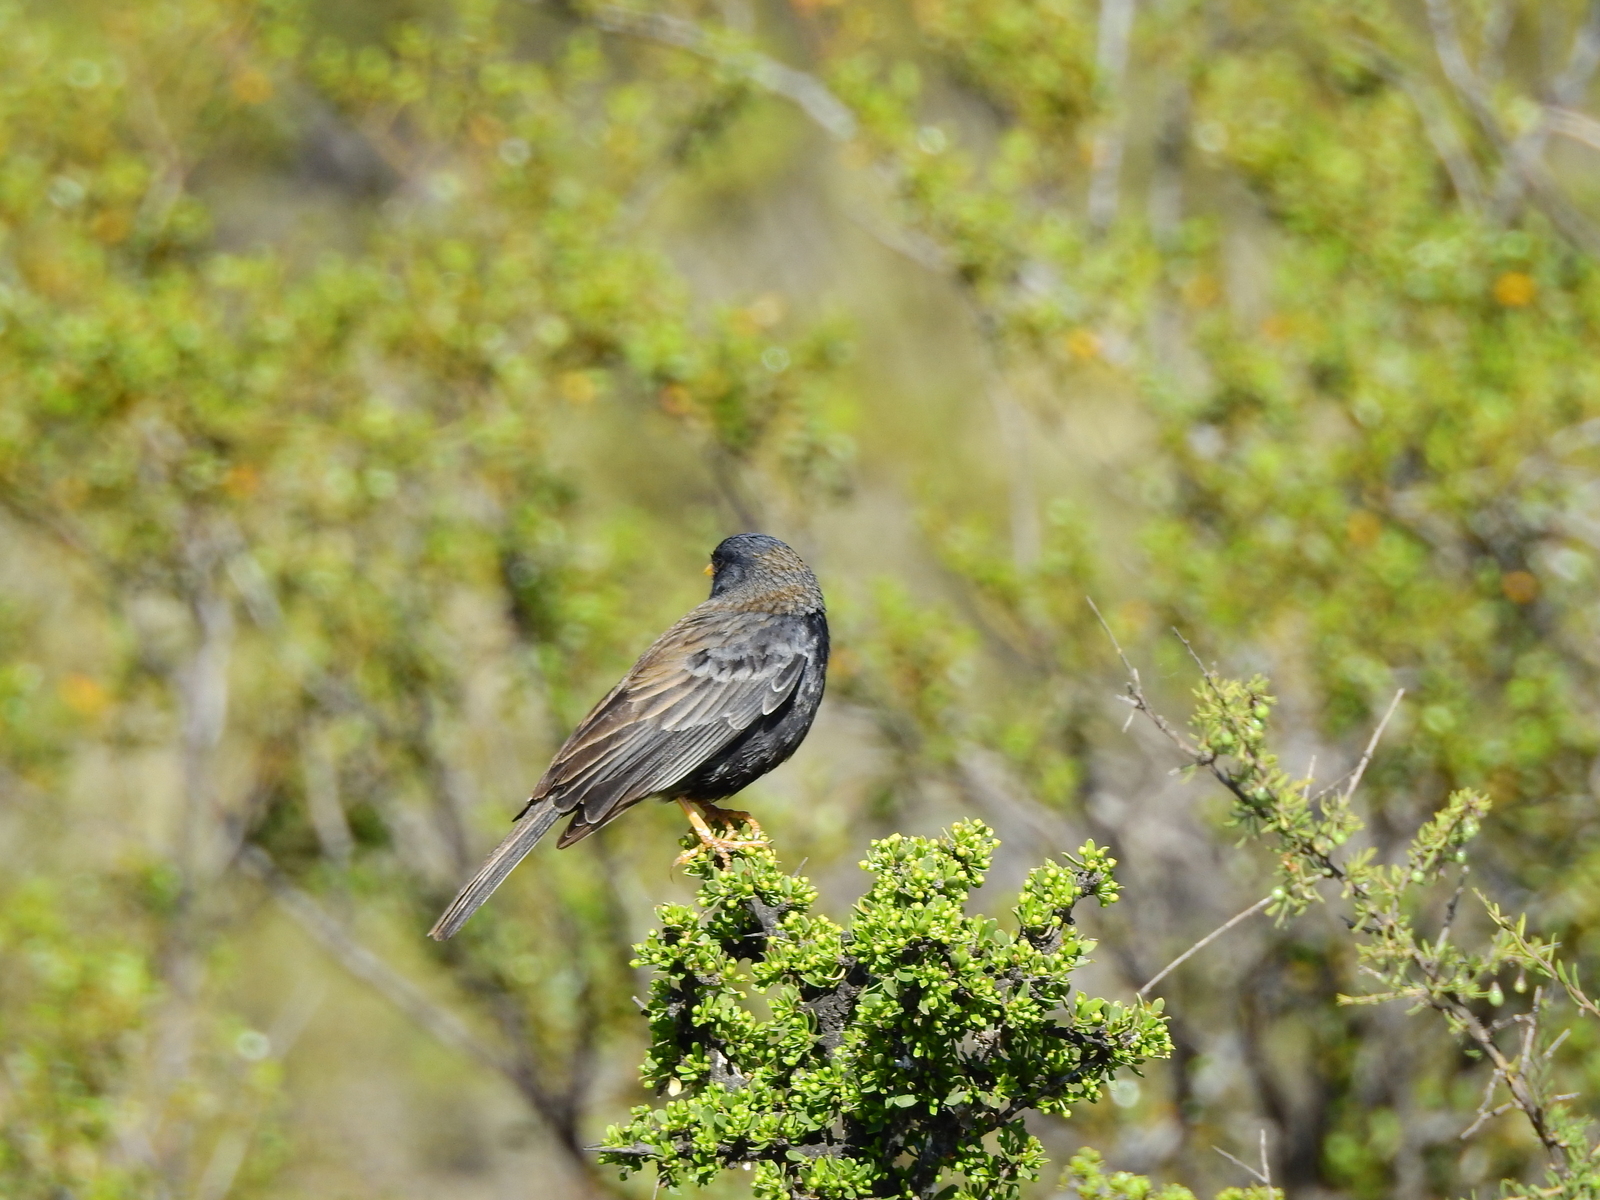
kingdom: Animalia
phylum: Chordata
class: Aves
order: Passeriformes
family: Thraupidae
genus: Porphyrospiza
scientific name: Porphyrospiza carbonaria
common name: Carbon finch
